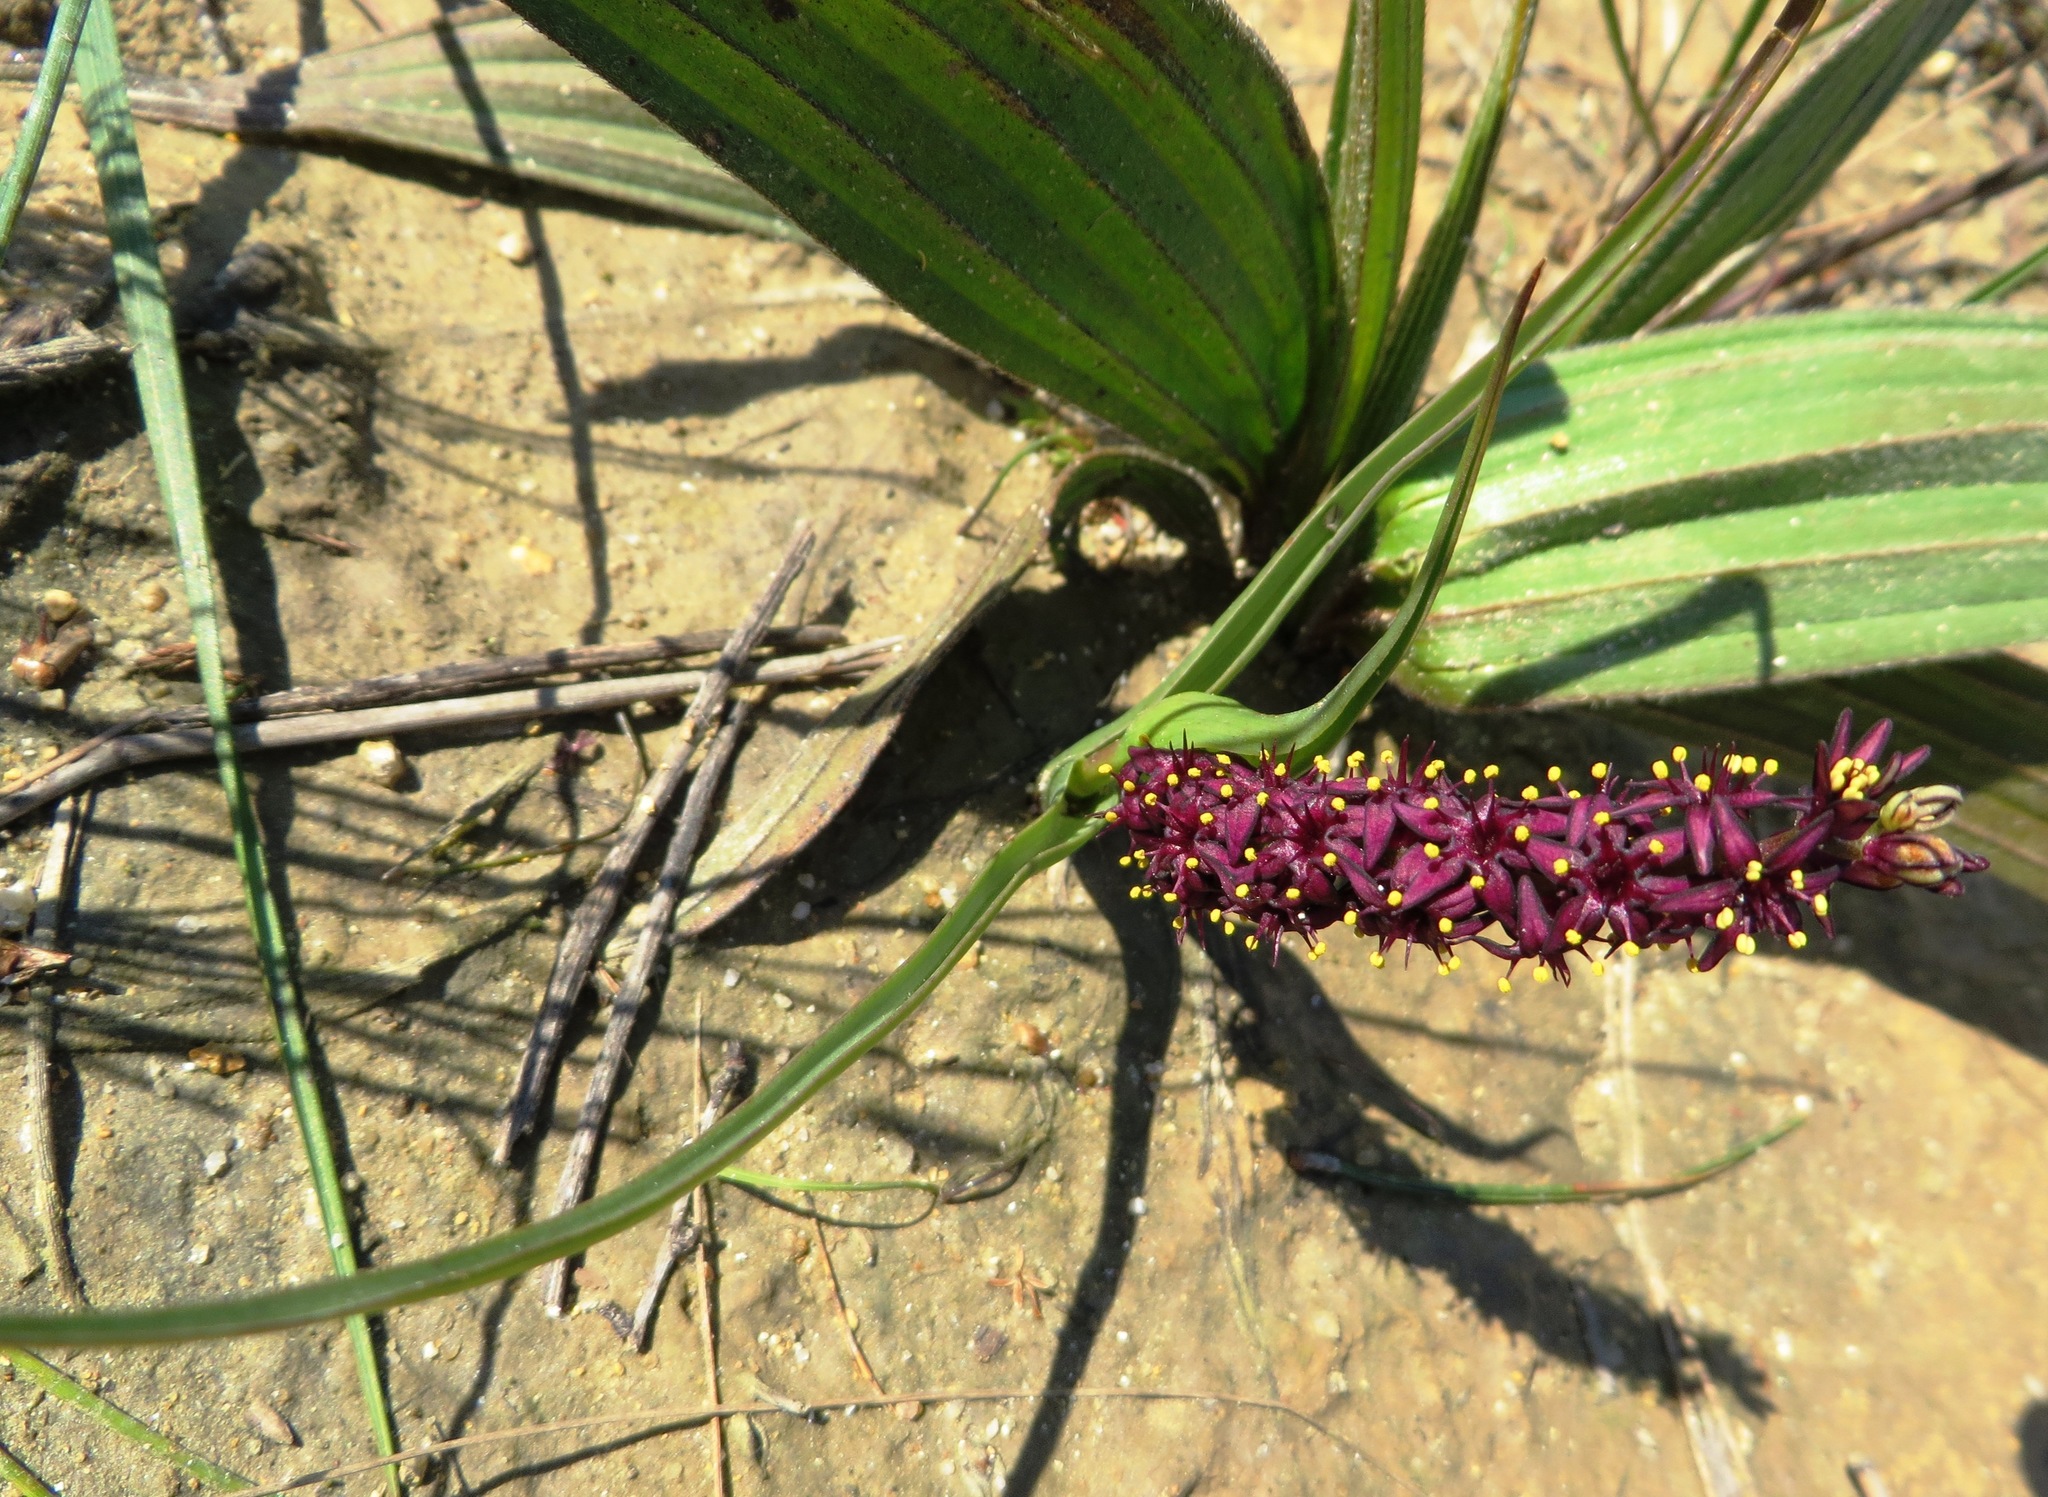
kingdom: Plantae
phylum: Tracheophyta
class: Liliopsida
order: Liliales
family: Colchicaceae
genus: Wurmbea
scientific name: Wurmbea recurva
